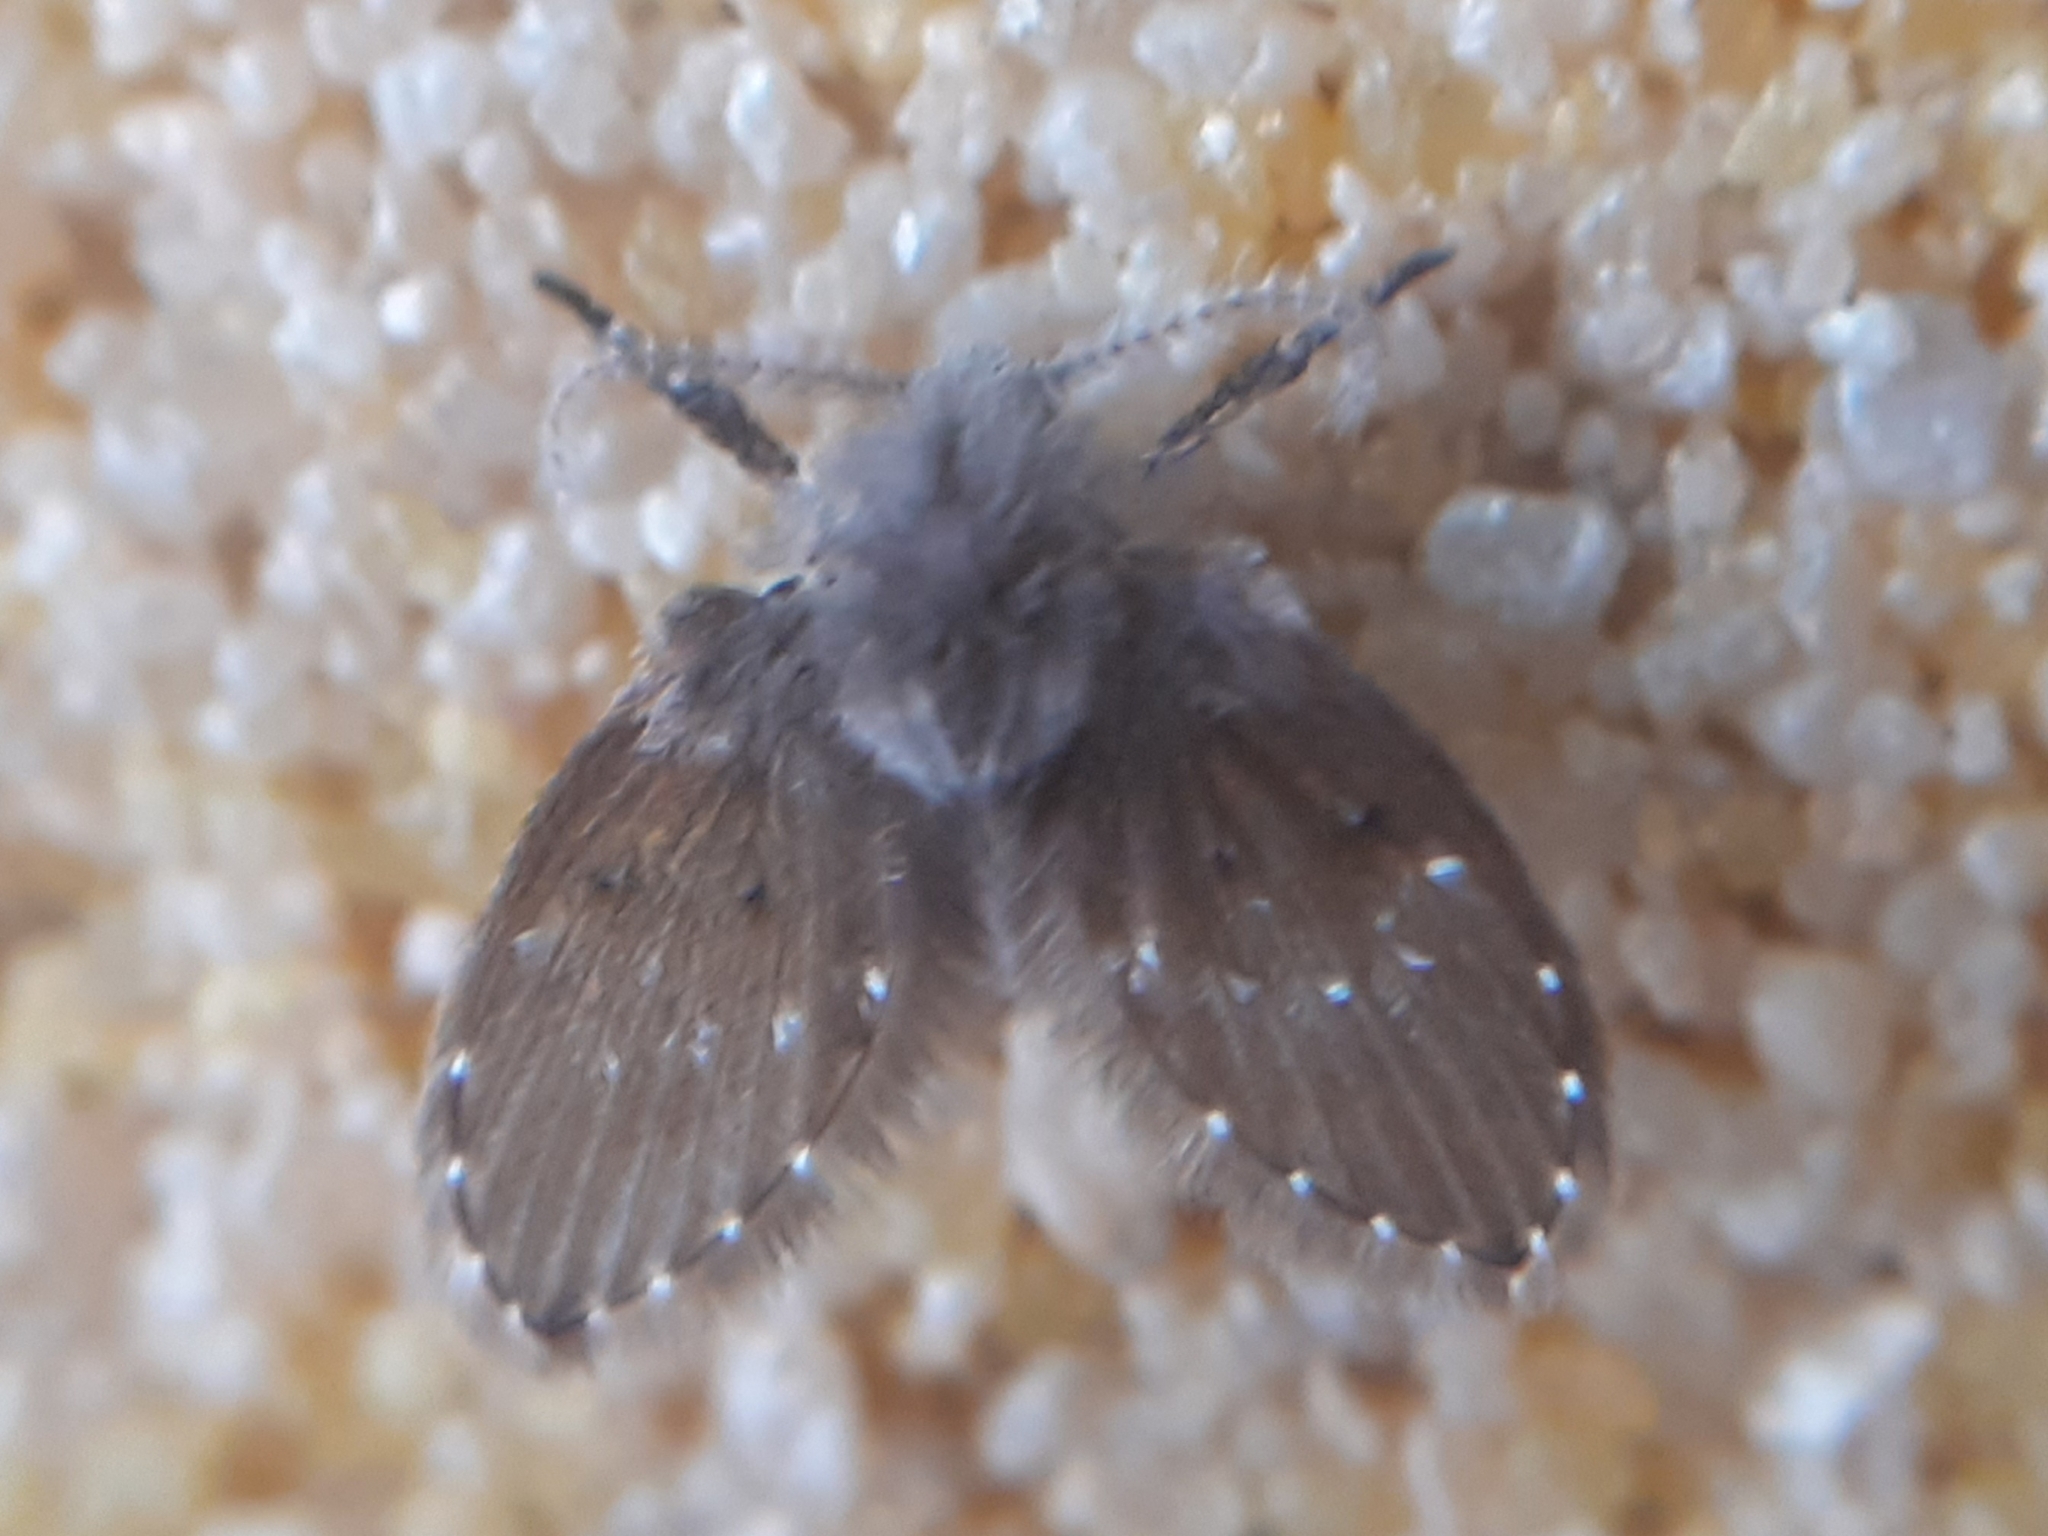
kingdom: Animalia
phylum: Arthropoda
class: Insecta
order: Diptera
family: Psychodidae
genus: Clogmia
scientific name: Clogmia albipunctatus
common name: White-spotted moth fly
